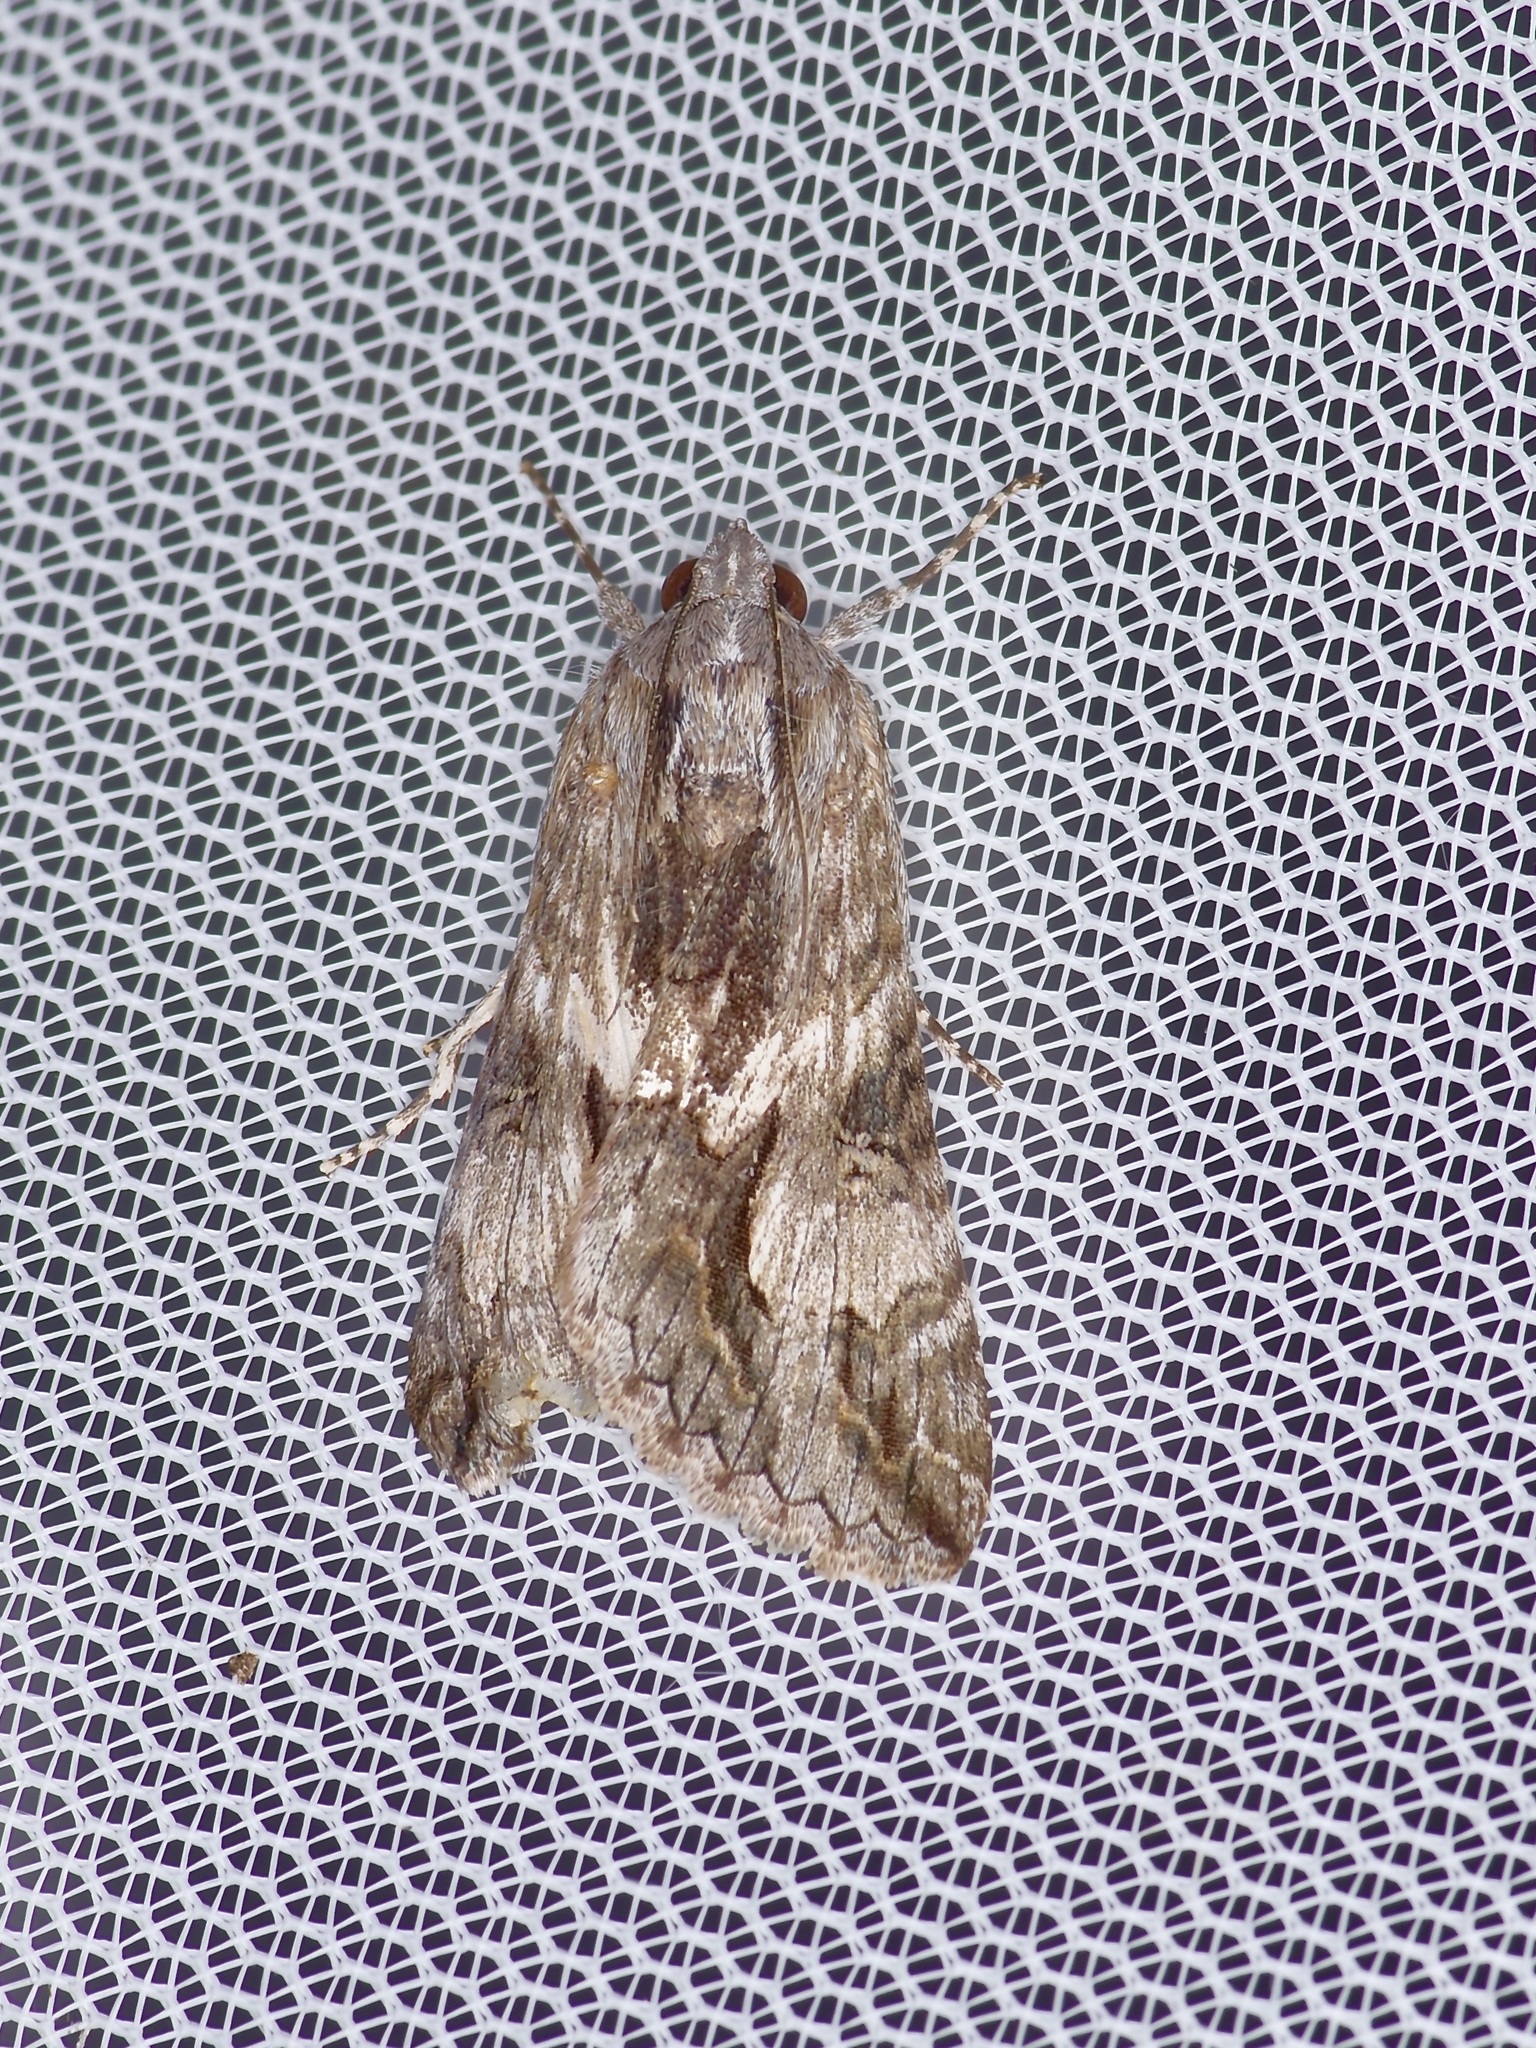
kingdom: Animalia
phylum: Arthropoda
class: Insecta
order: Lepidoptera
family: Erebidae
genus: Melipotis
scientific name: Melipotis jucunda
